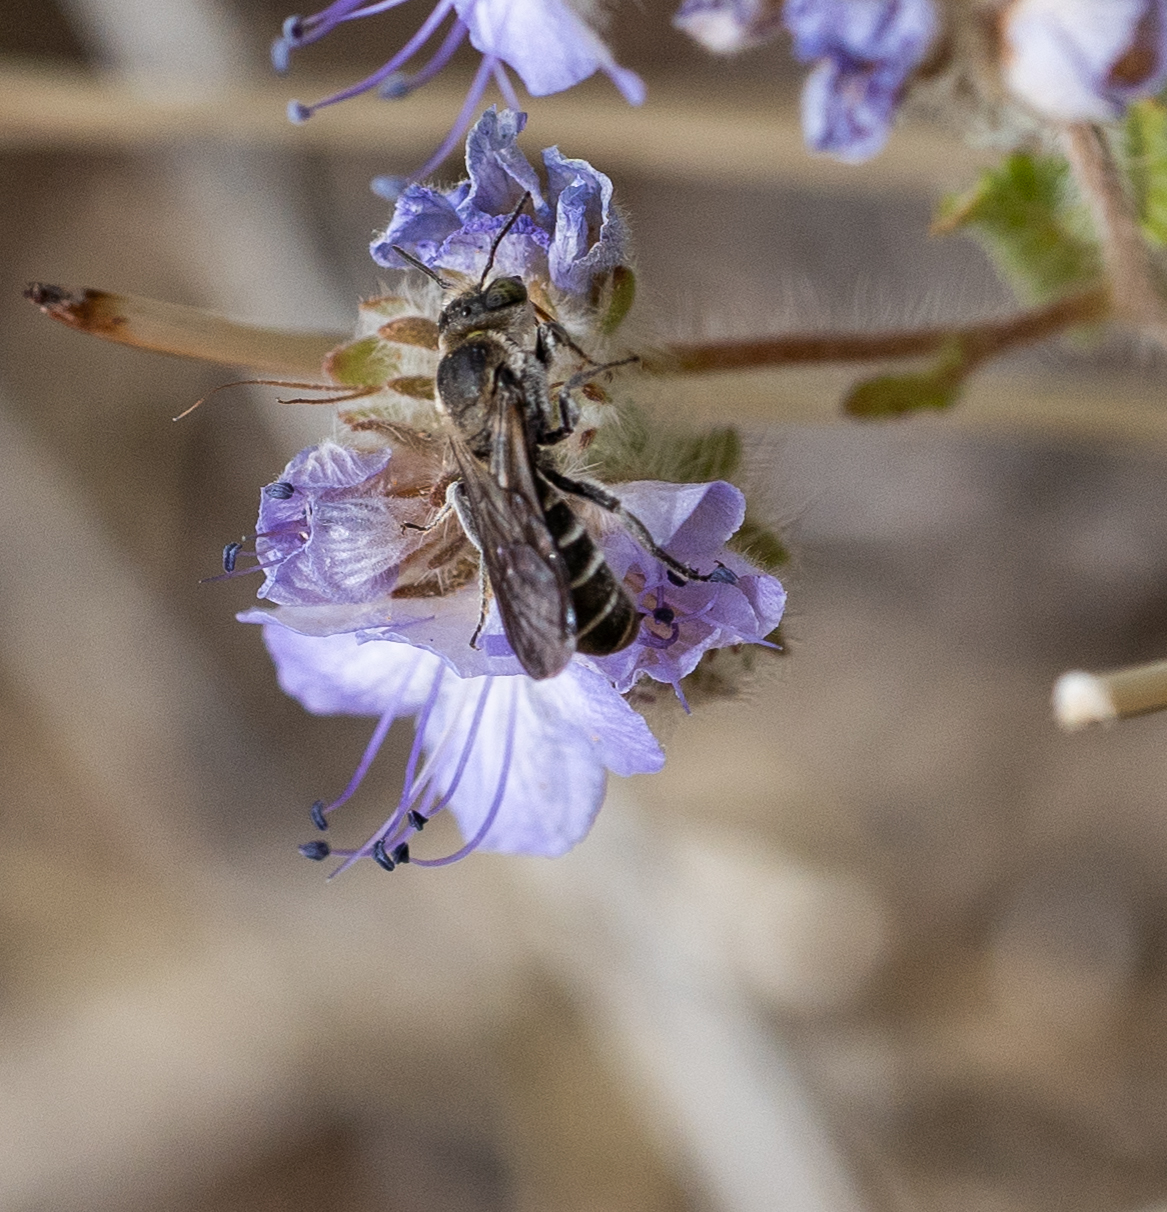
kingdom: Animalia
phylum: Arthropoda
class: Insecta
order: Hymenoptera
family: Megachilidae
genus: Chelostoma
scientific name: Chelostoma californicum
